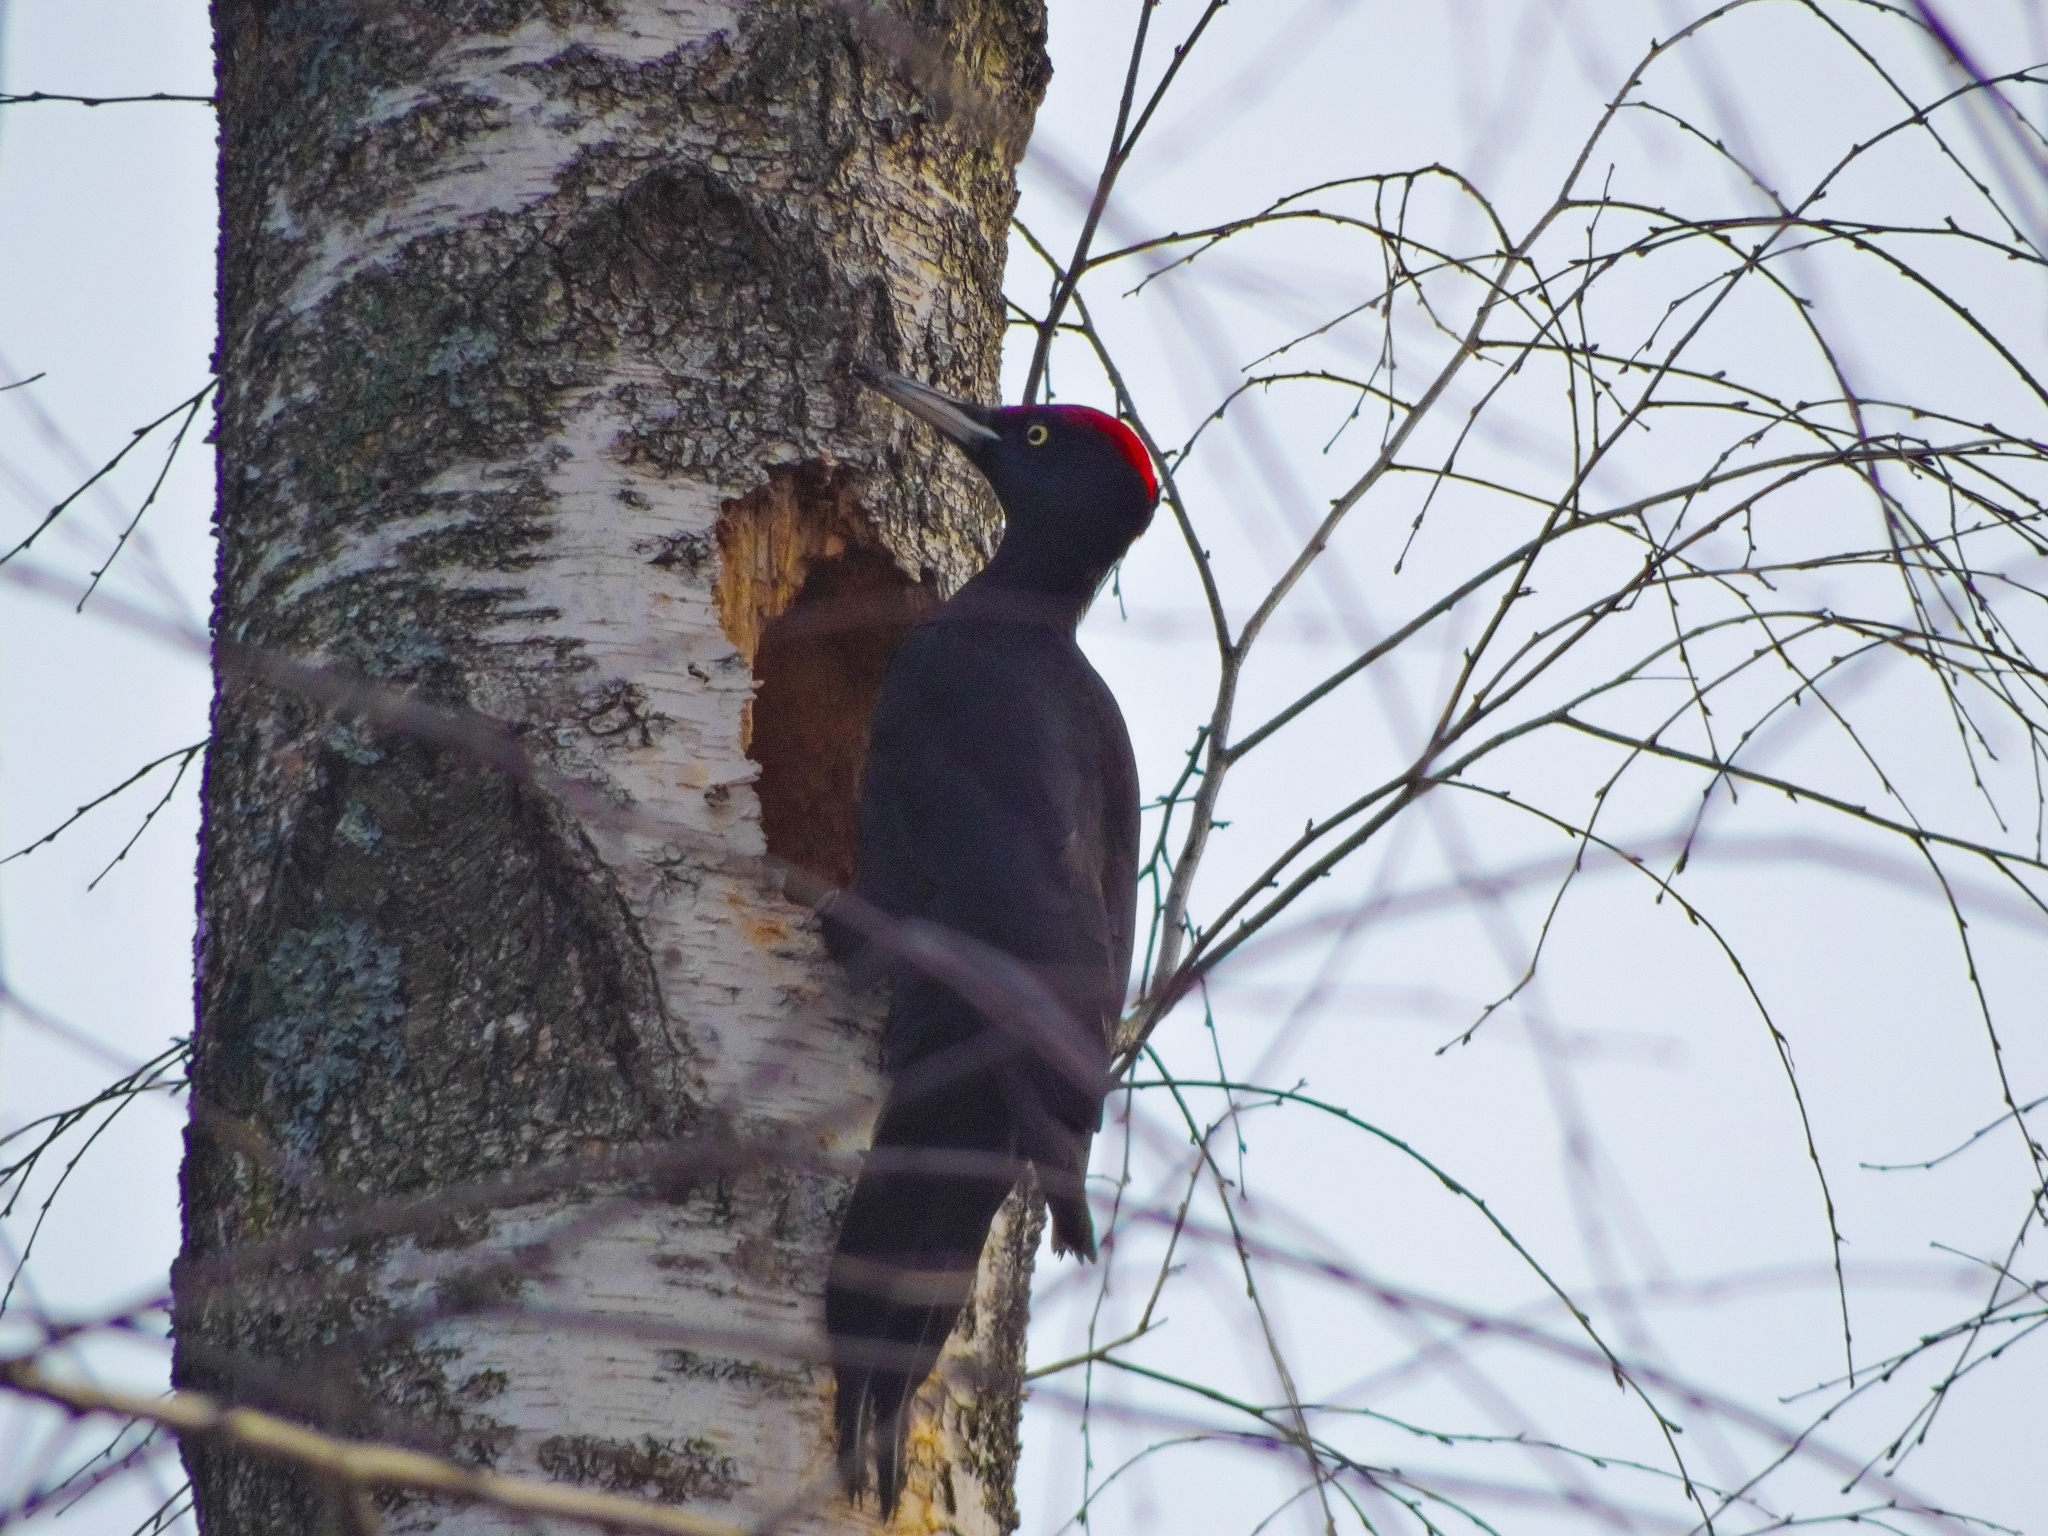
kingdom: Animalia
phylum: Chordata
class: Aves
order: Piciformes
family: Picidae
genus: Dryocopus
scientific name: Dryocopus martius
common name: Black woodpecker
